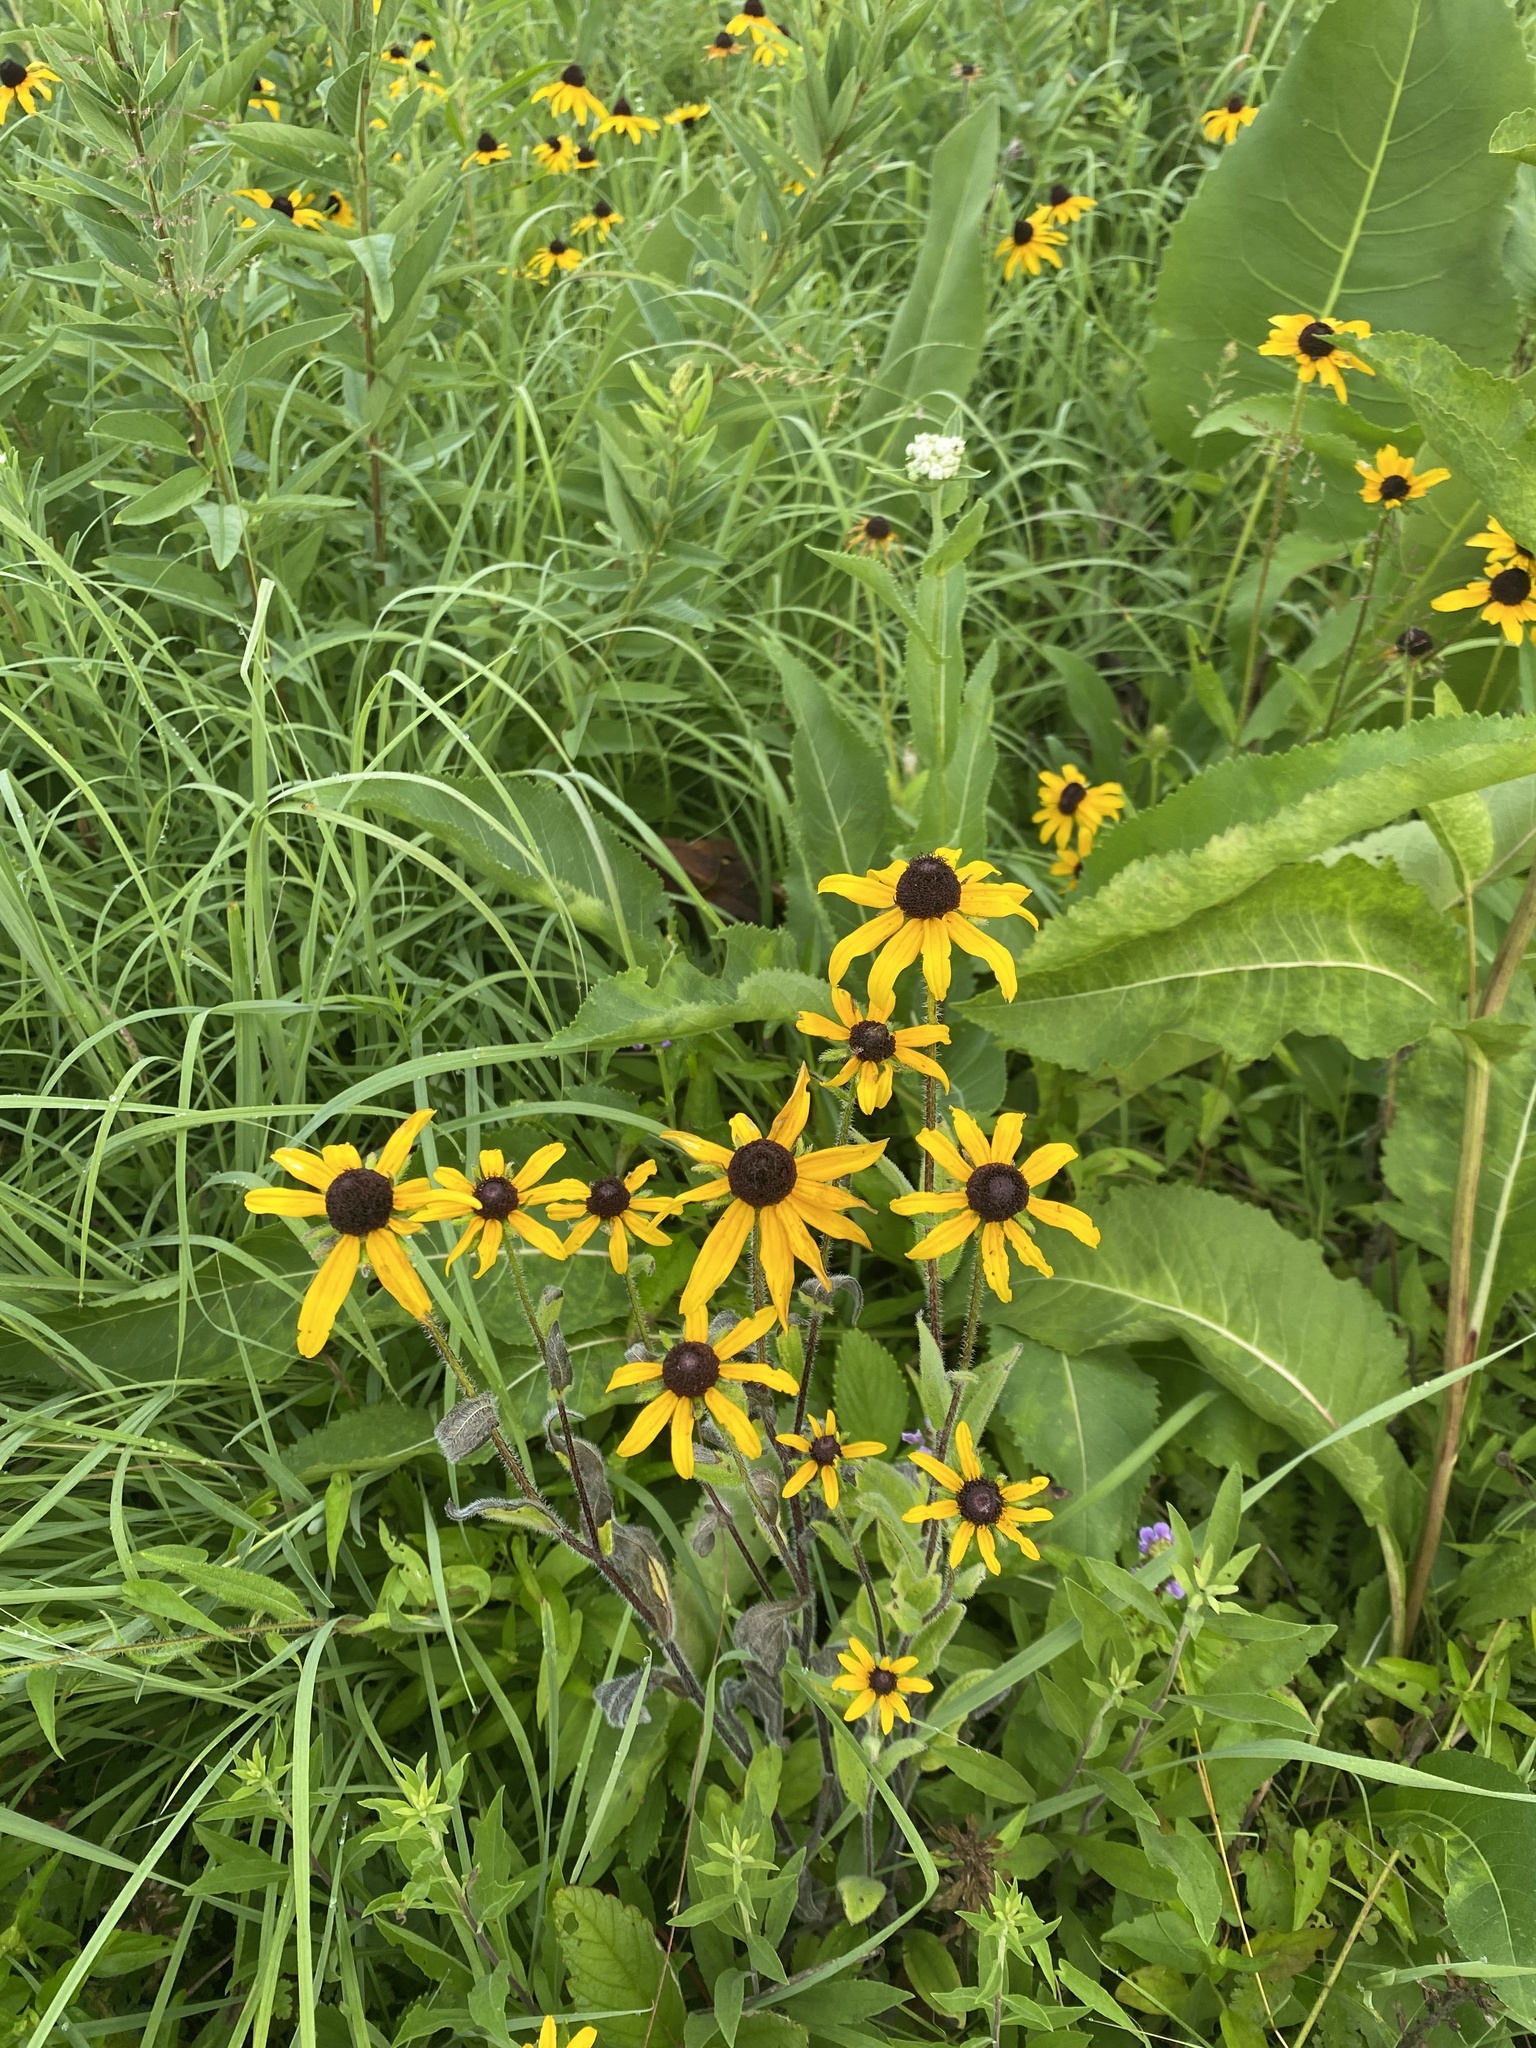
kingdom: Plantae
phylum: Tracheophyta
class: Magnoliopsida
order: Asterales
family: Asteraceae
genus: Rudbeckia
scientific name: Rudbeckia hirta
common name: Black-eyed-susan
